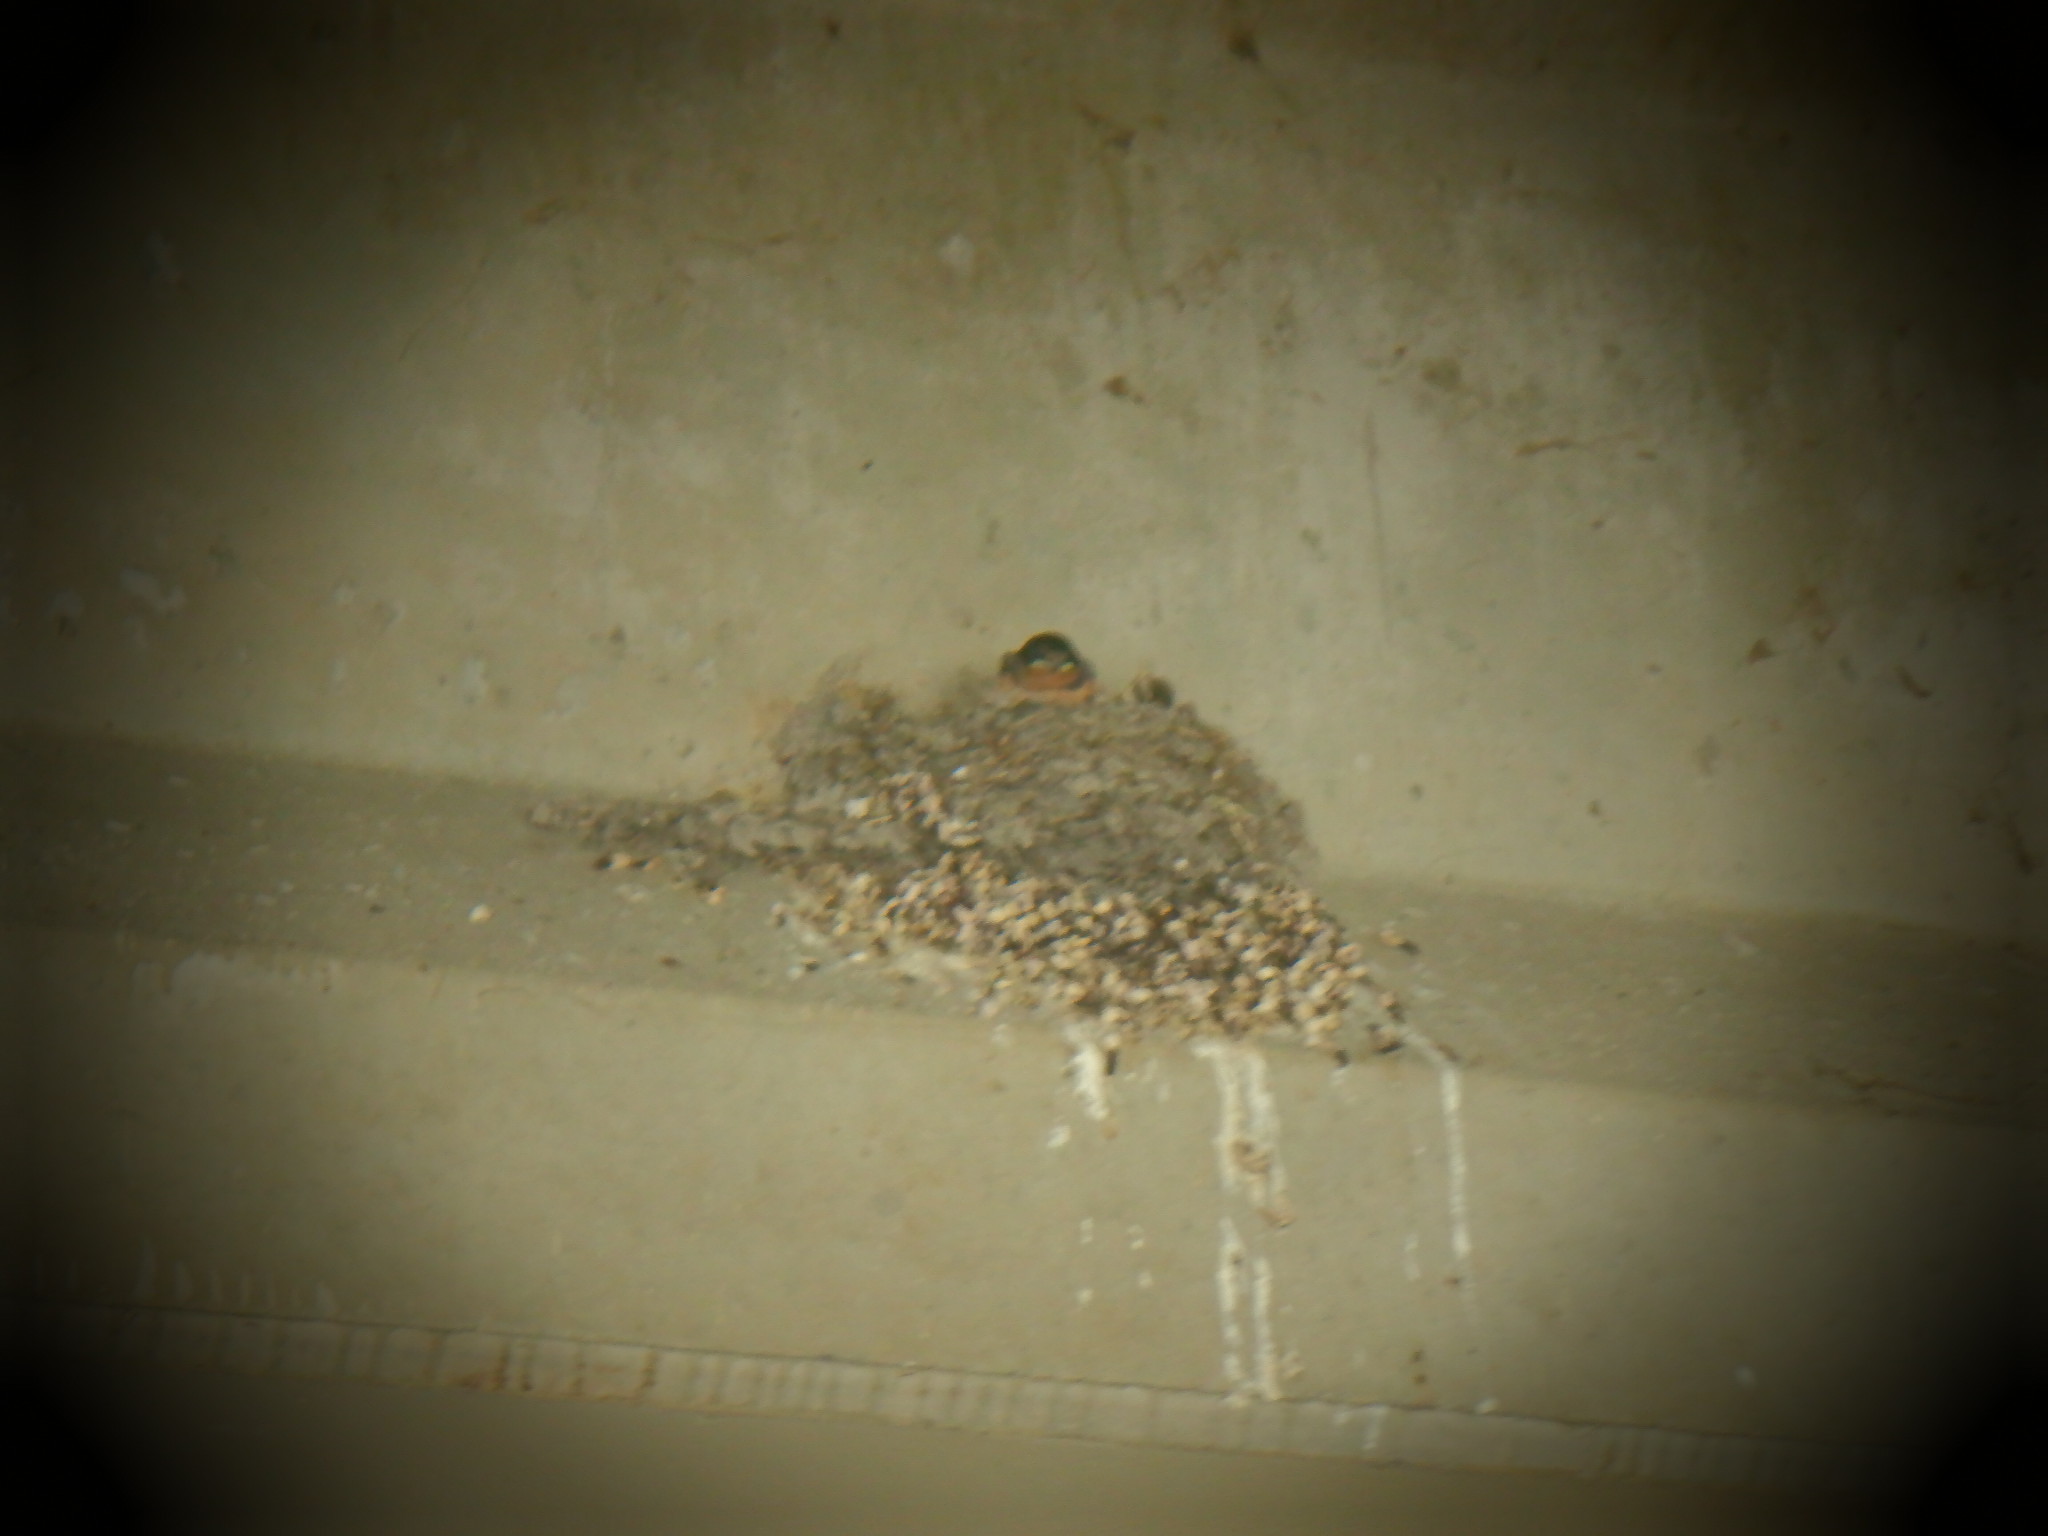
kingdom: Animalia
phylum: Chordata
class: Aves
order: Passeriformes
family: Hirundinidae
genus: Hirundo
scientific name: Hirundo rustica
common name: Barn swallow
